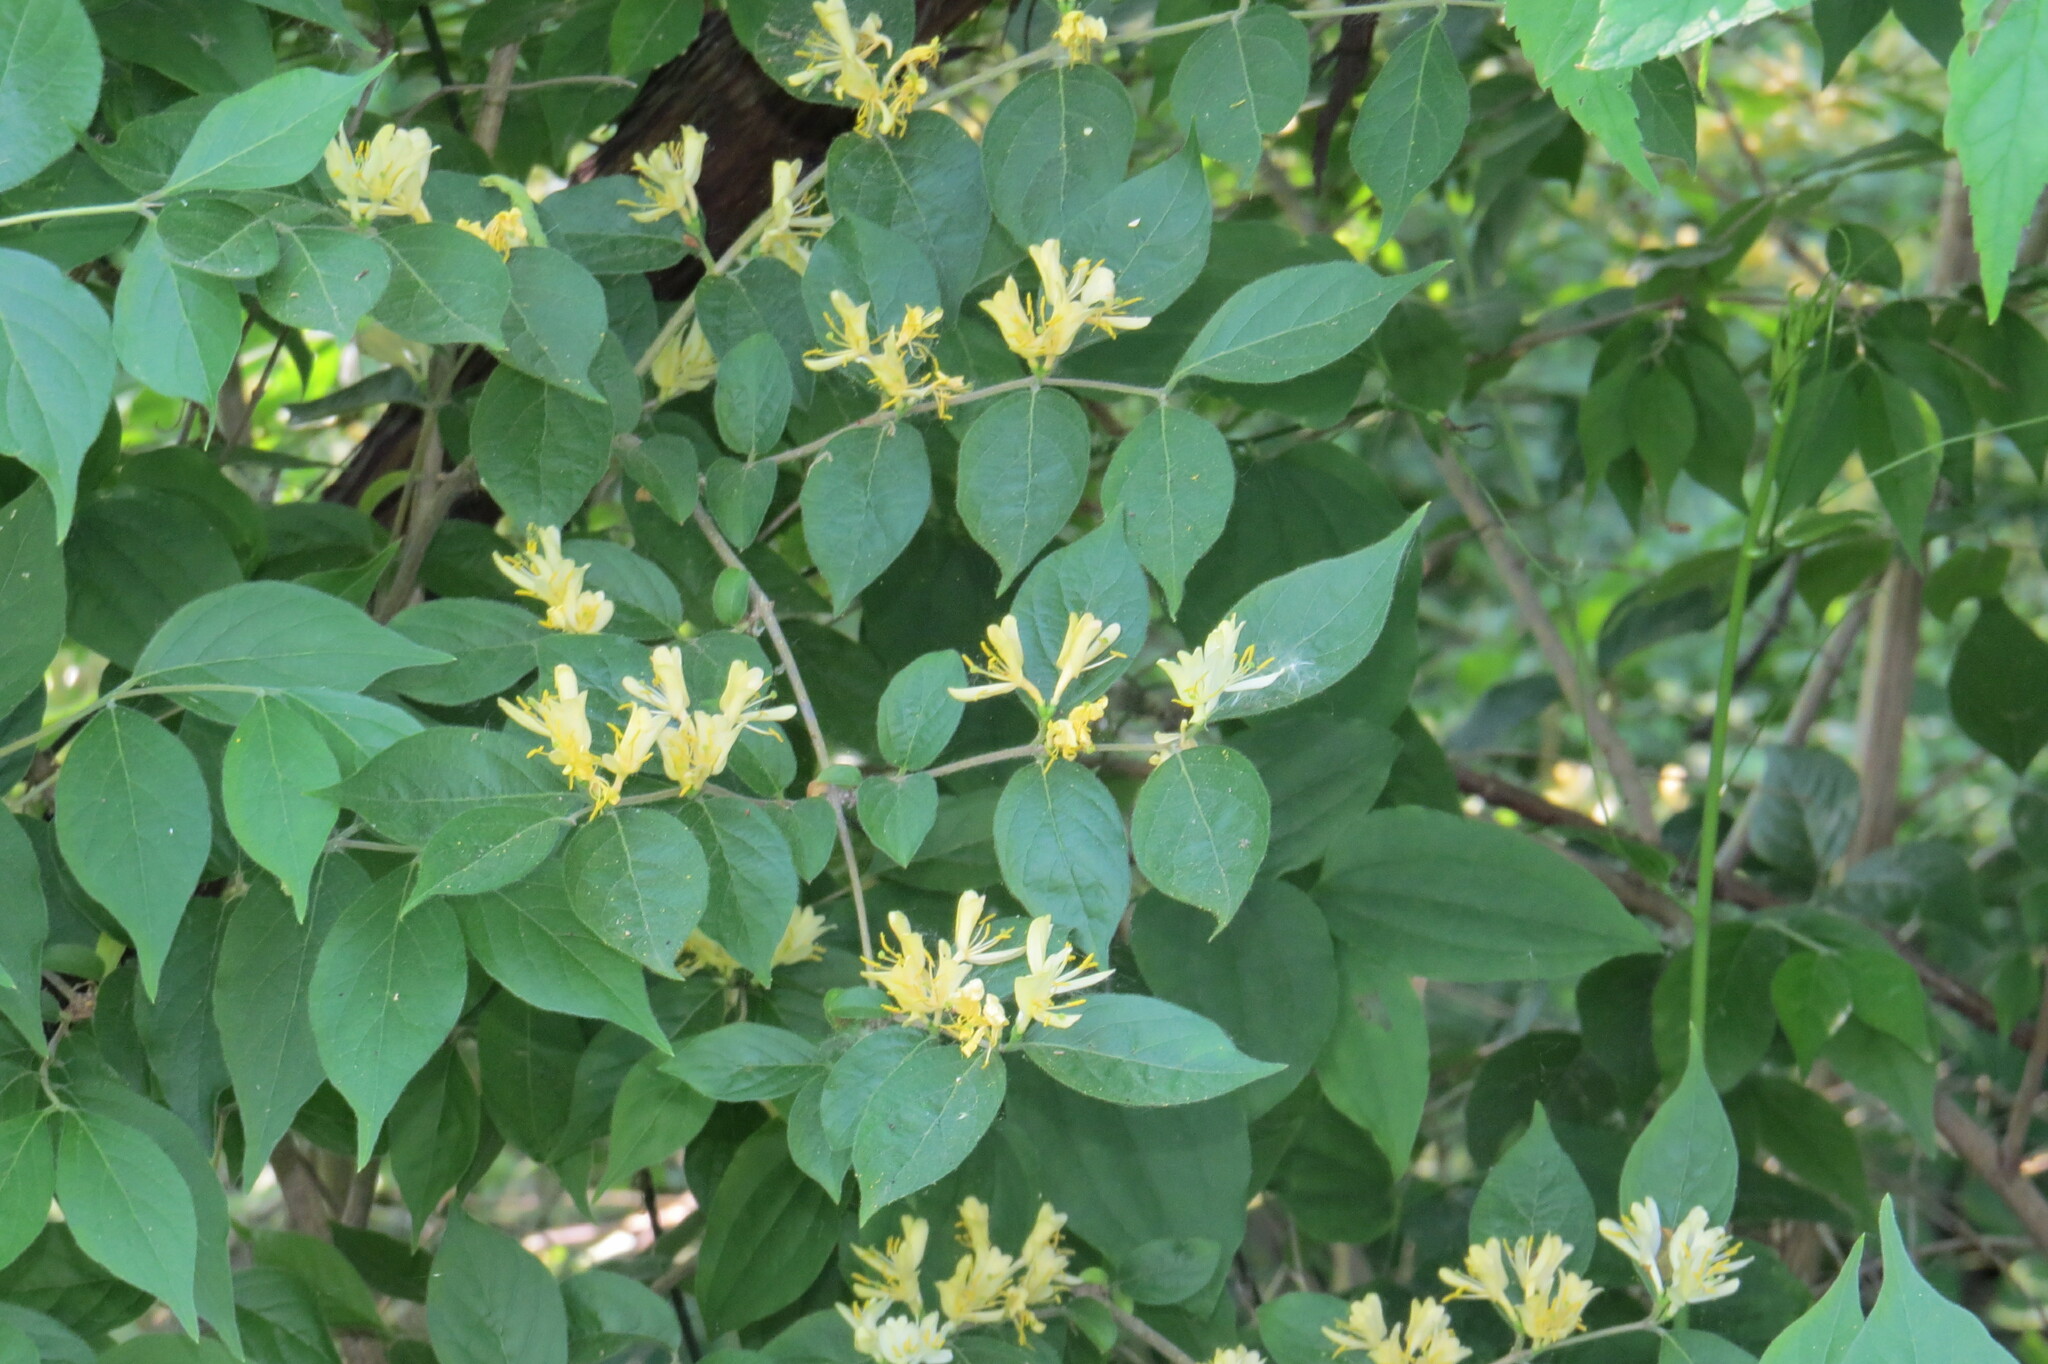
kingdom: Plantae
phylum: Tracheophyta
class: Magnoliopsida
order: Dipsacales
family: Caprifoliaceae
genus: Lonicera
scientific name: Lonicera maackii
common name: Amur honeysuckle
